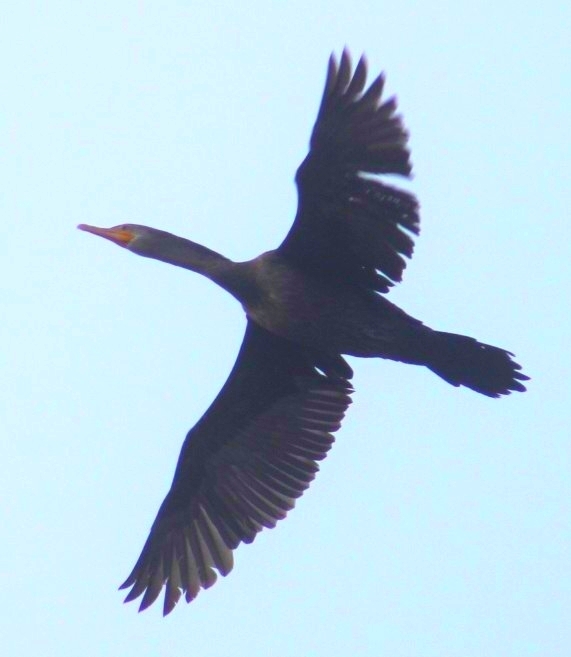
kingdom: Animalia
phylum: Chordata
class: Aves
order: Suliformes
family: Phalacrocoracidae
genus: Phalacrocorax
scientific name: Phalacrocorax brasilianus
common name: Neotropic cormorant
